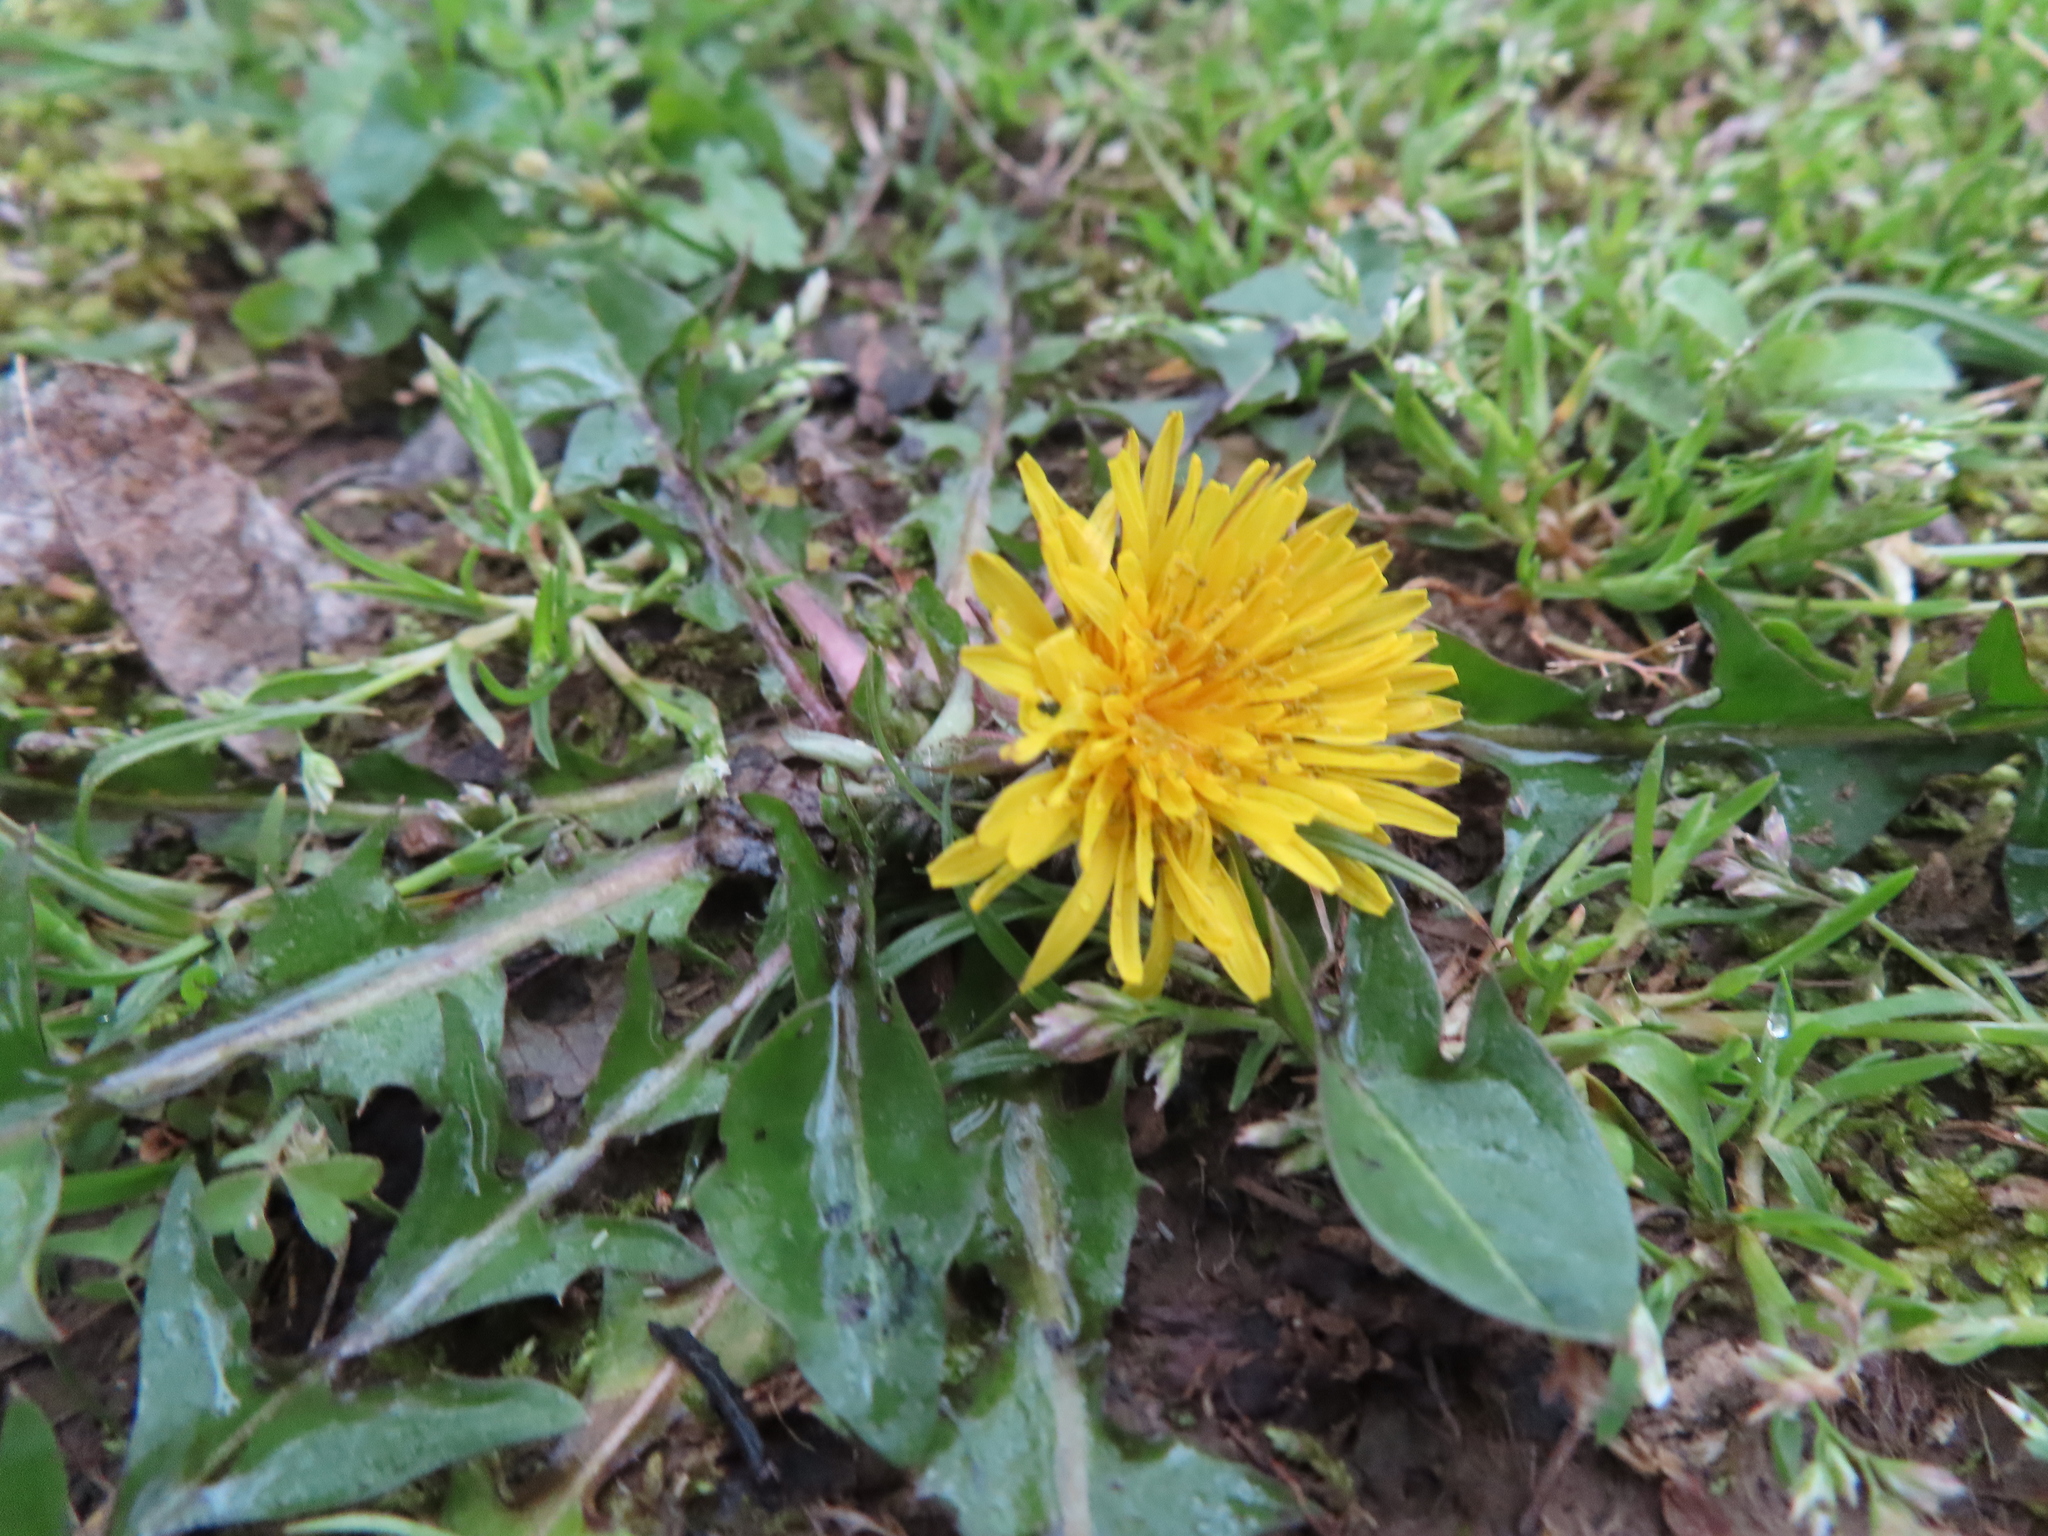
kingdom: Plantae
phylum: Tracheophyta
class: Magnoliopsida
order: Asterales
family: Asteraceae
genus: Taraxacum
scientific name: Taraxacum
